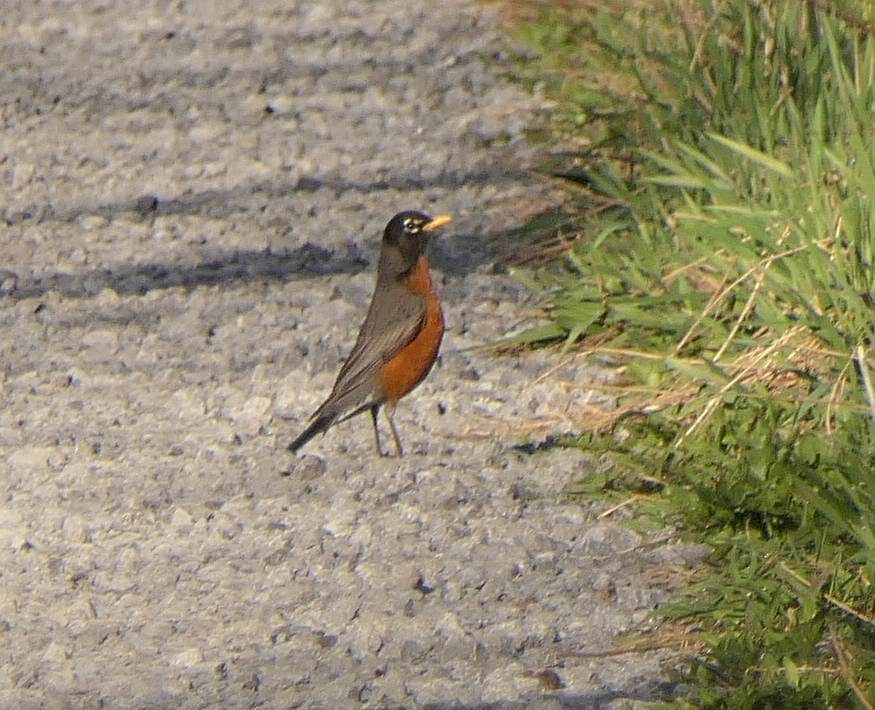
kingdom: Animalia
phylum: Chordata
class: Aves
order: Passeriformes
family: Turdidae
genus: Turdus
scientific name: Turdus migratorius
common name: American robin
